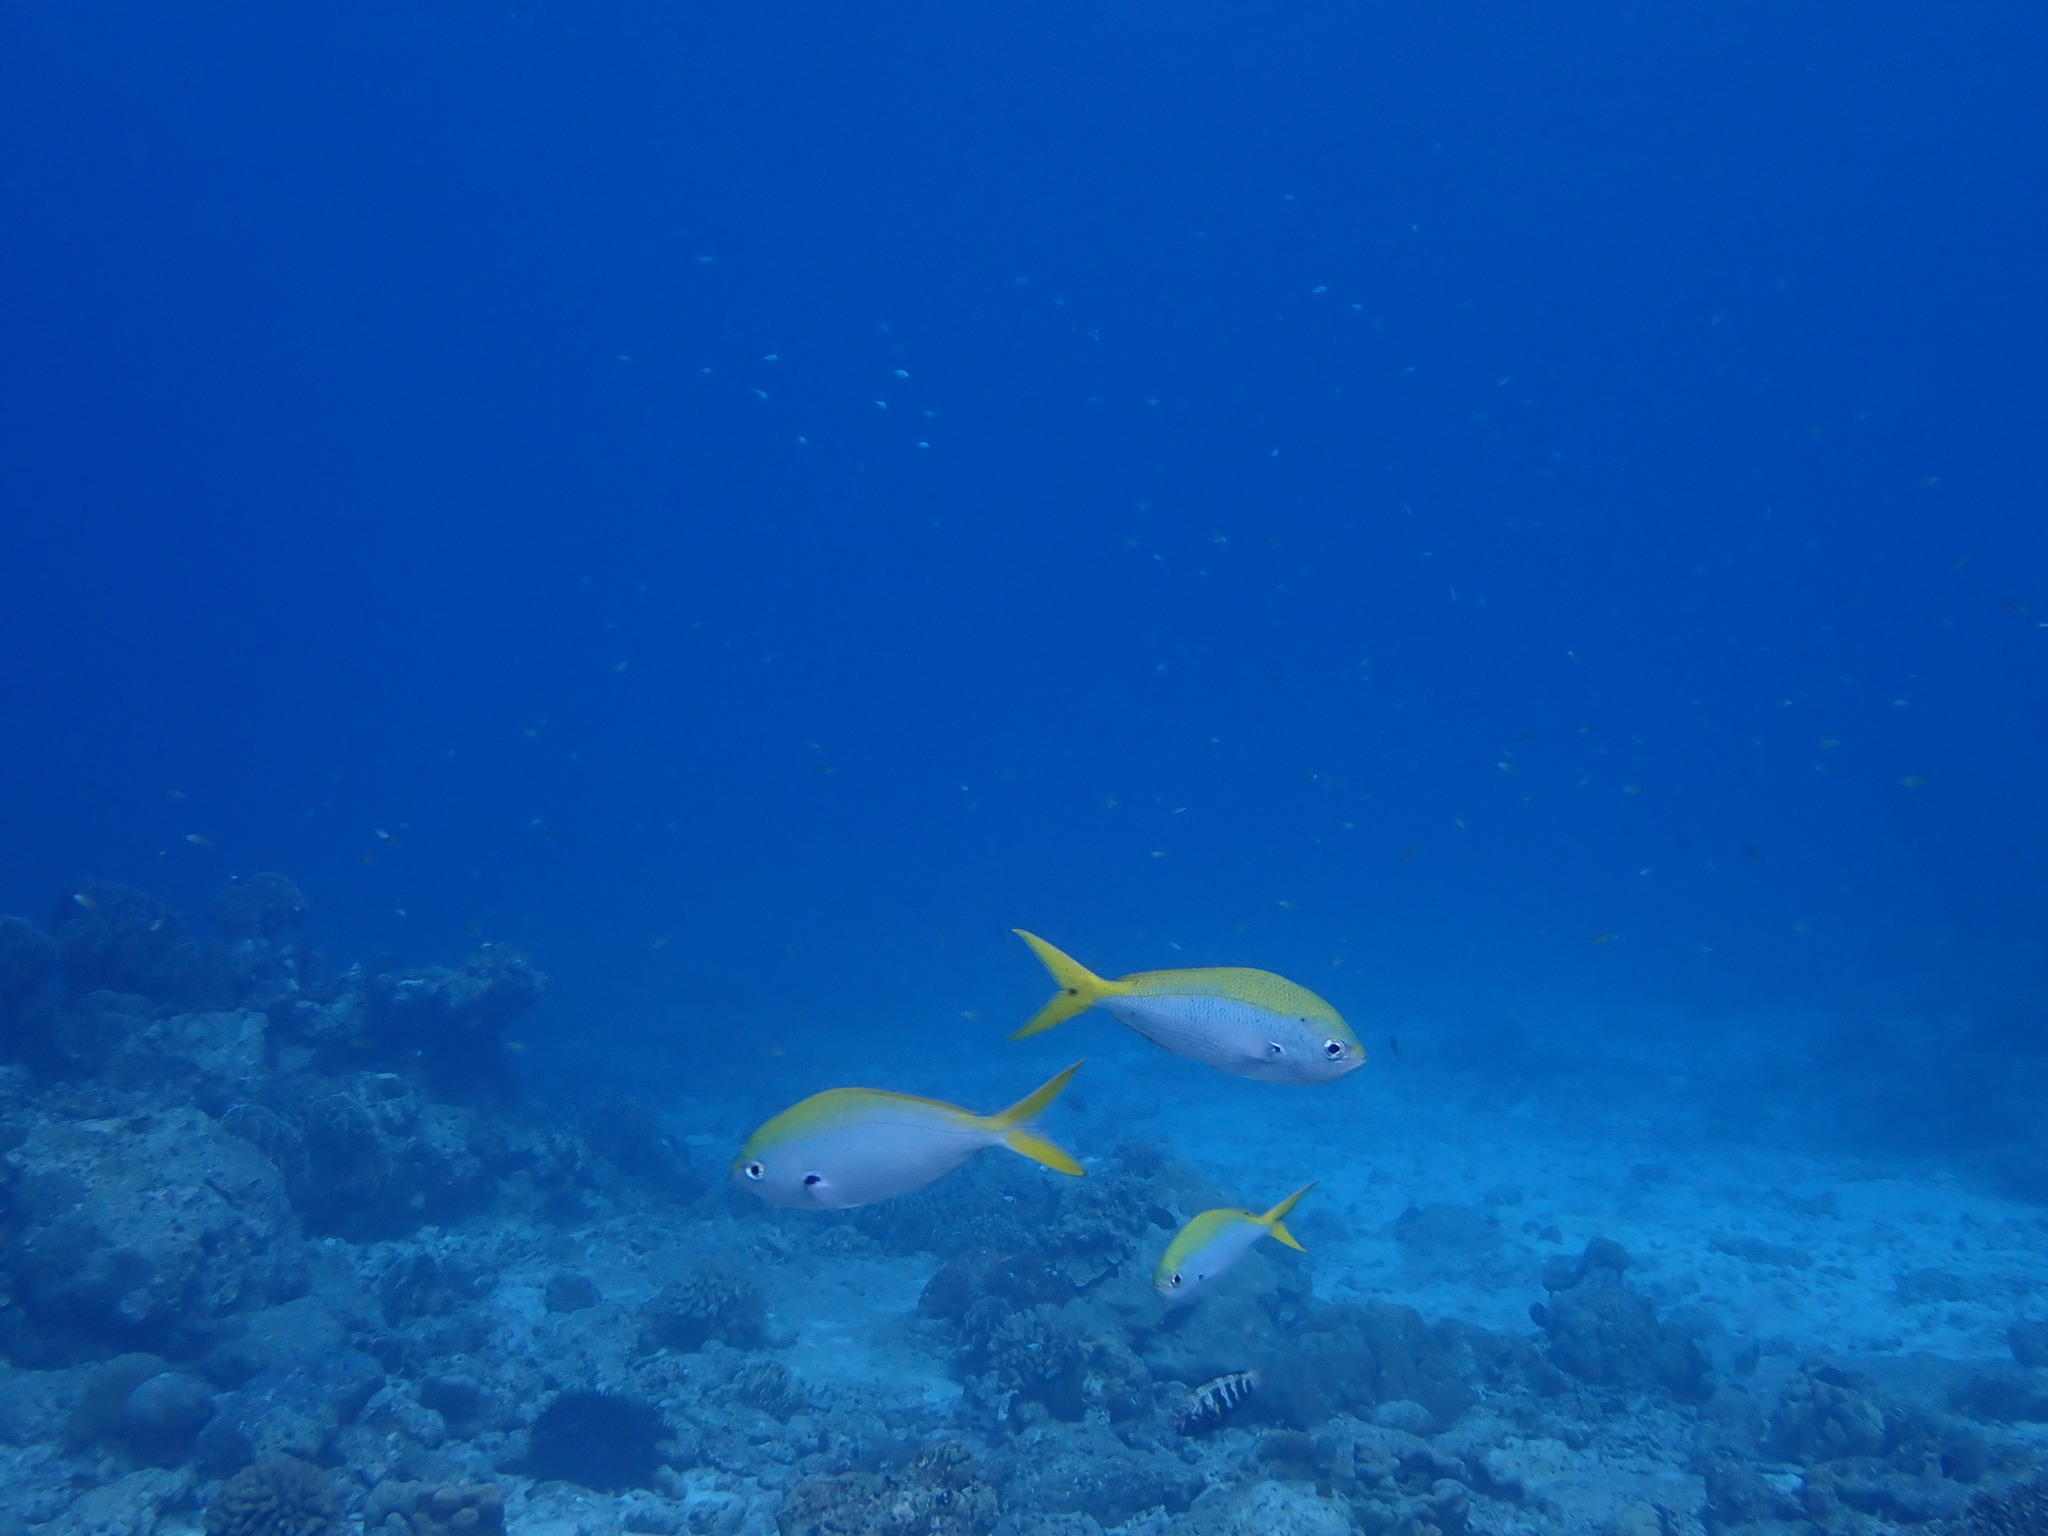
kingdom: Animalia
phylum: Chordata
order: Perciformes
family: Caesionidae
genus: Caesio
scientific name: Caesio xanthonota
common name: Yellowback fusilier
